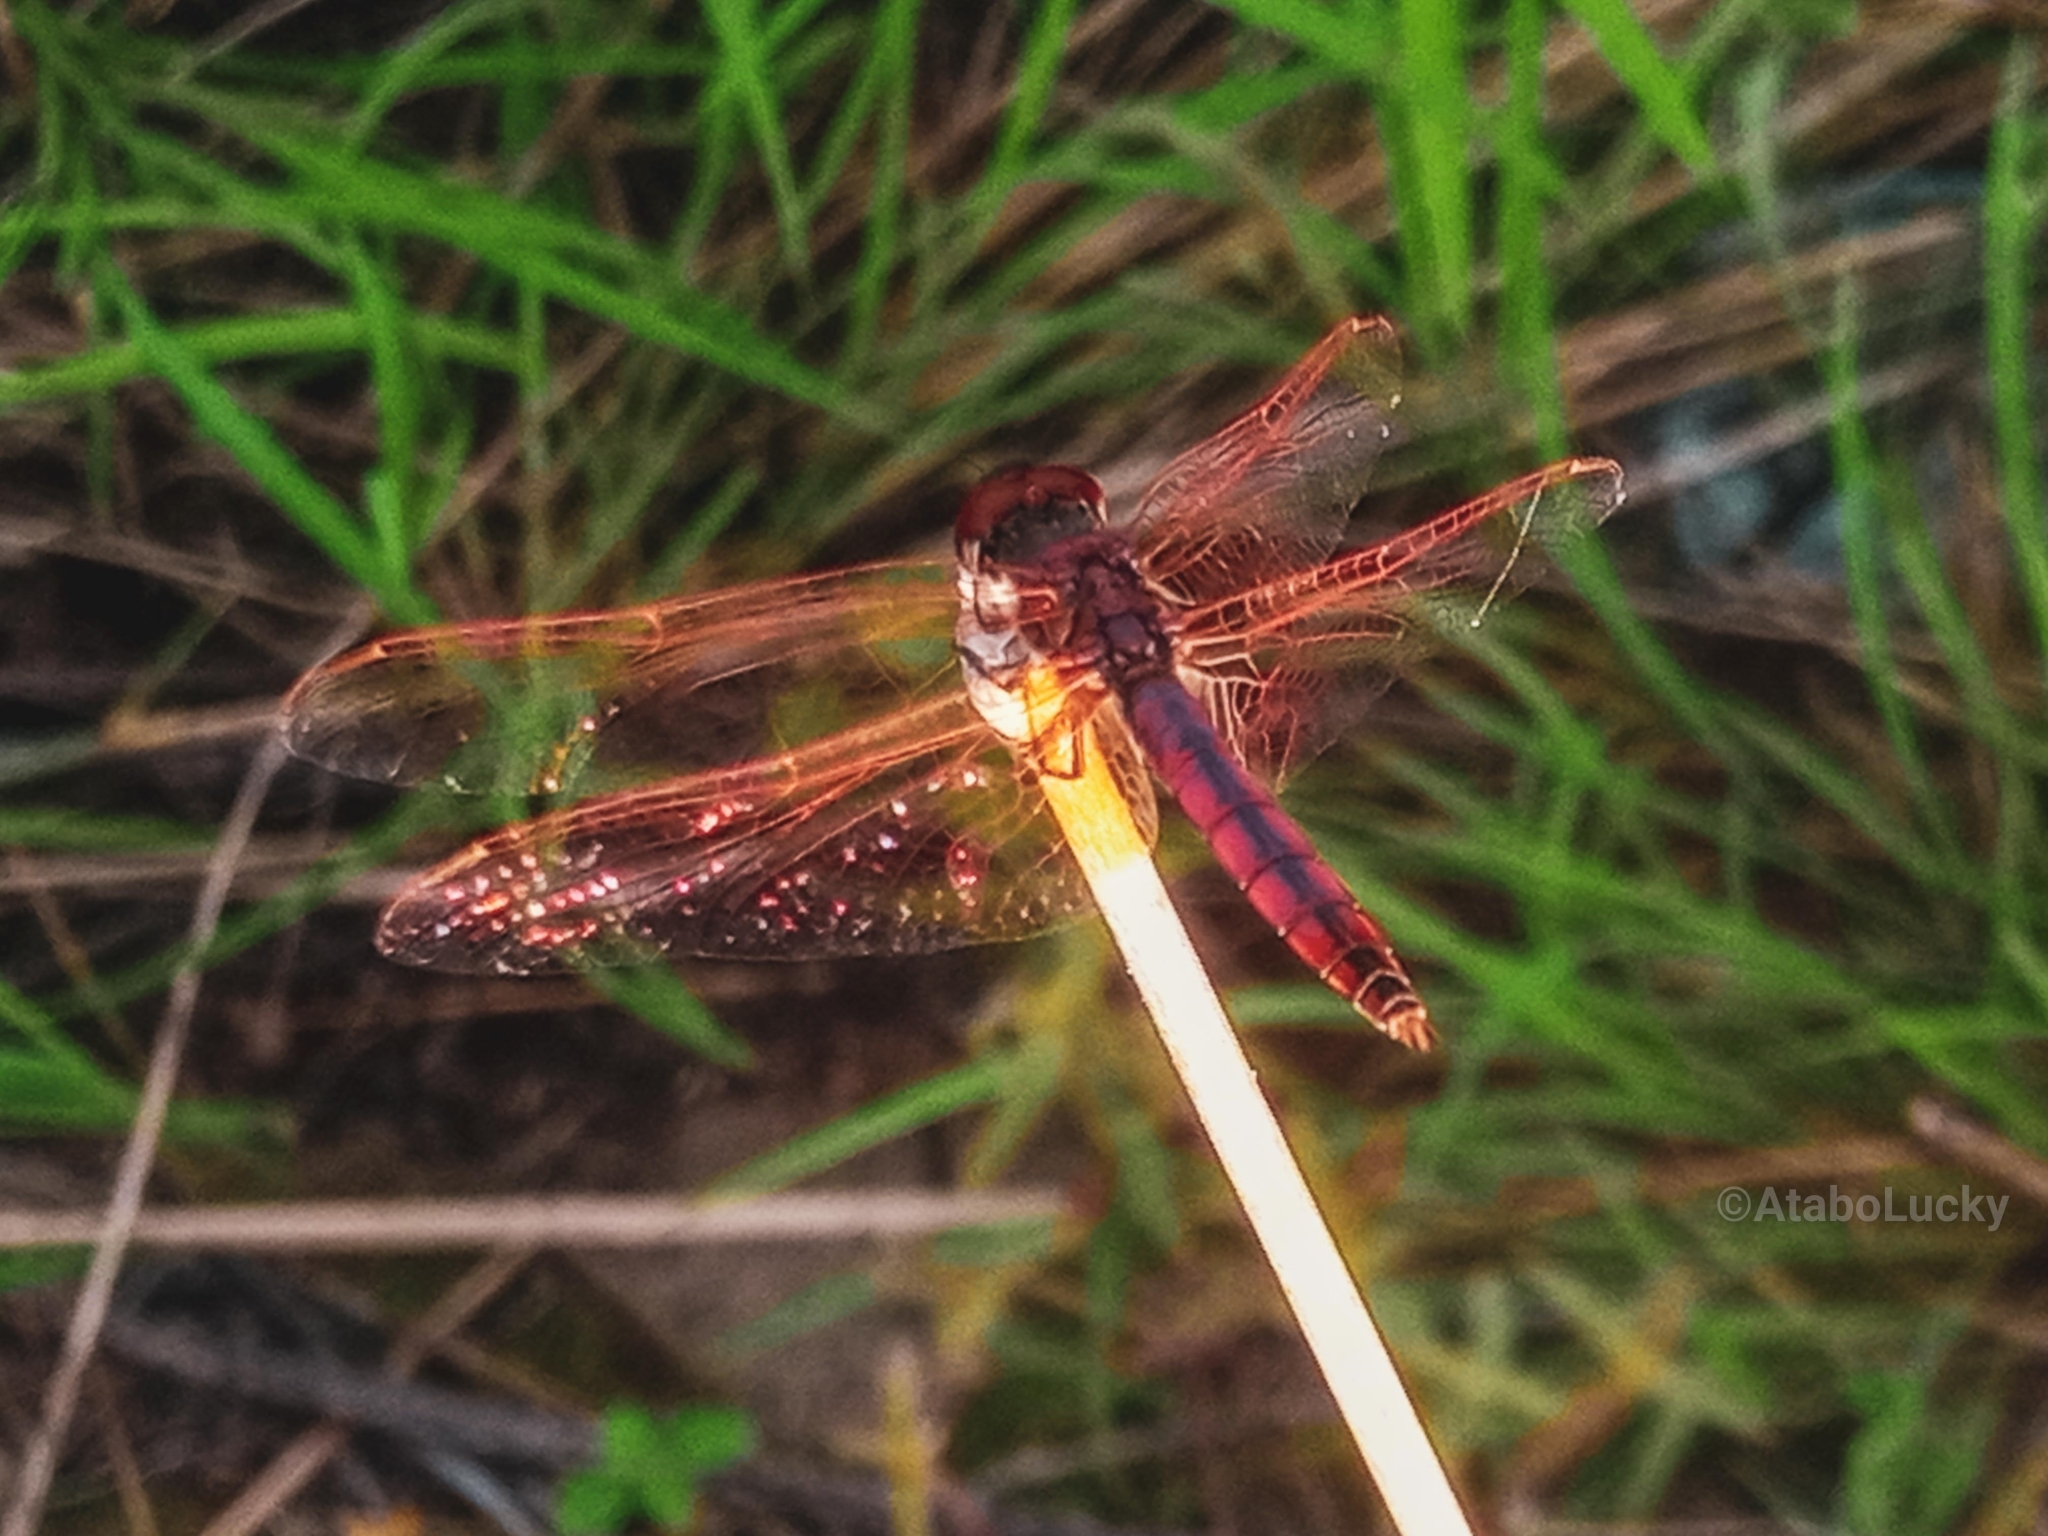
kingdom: Animalia
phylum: Arthropoda
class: Insecta
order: Odonata
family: Libellulidae
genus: Trithemis
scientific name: Trithemis annulata
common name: Violet dropwing
